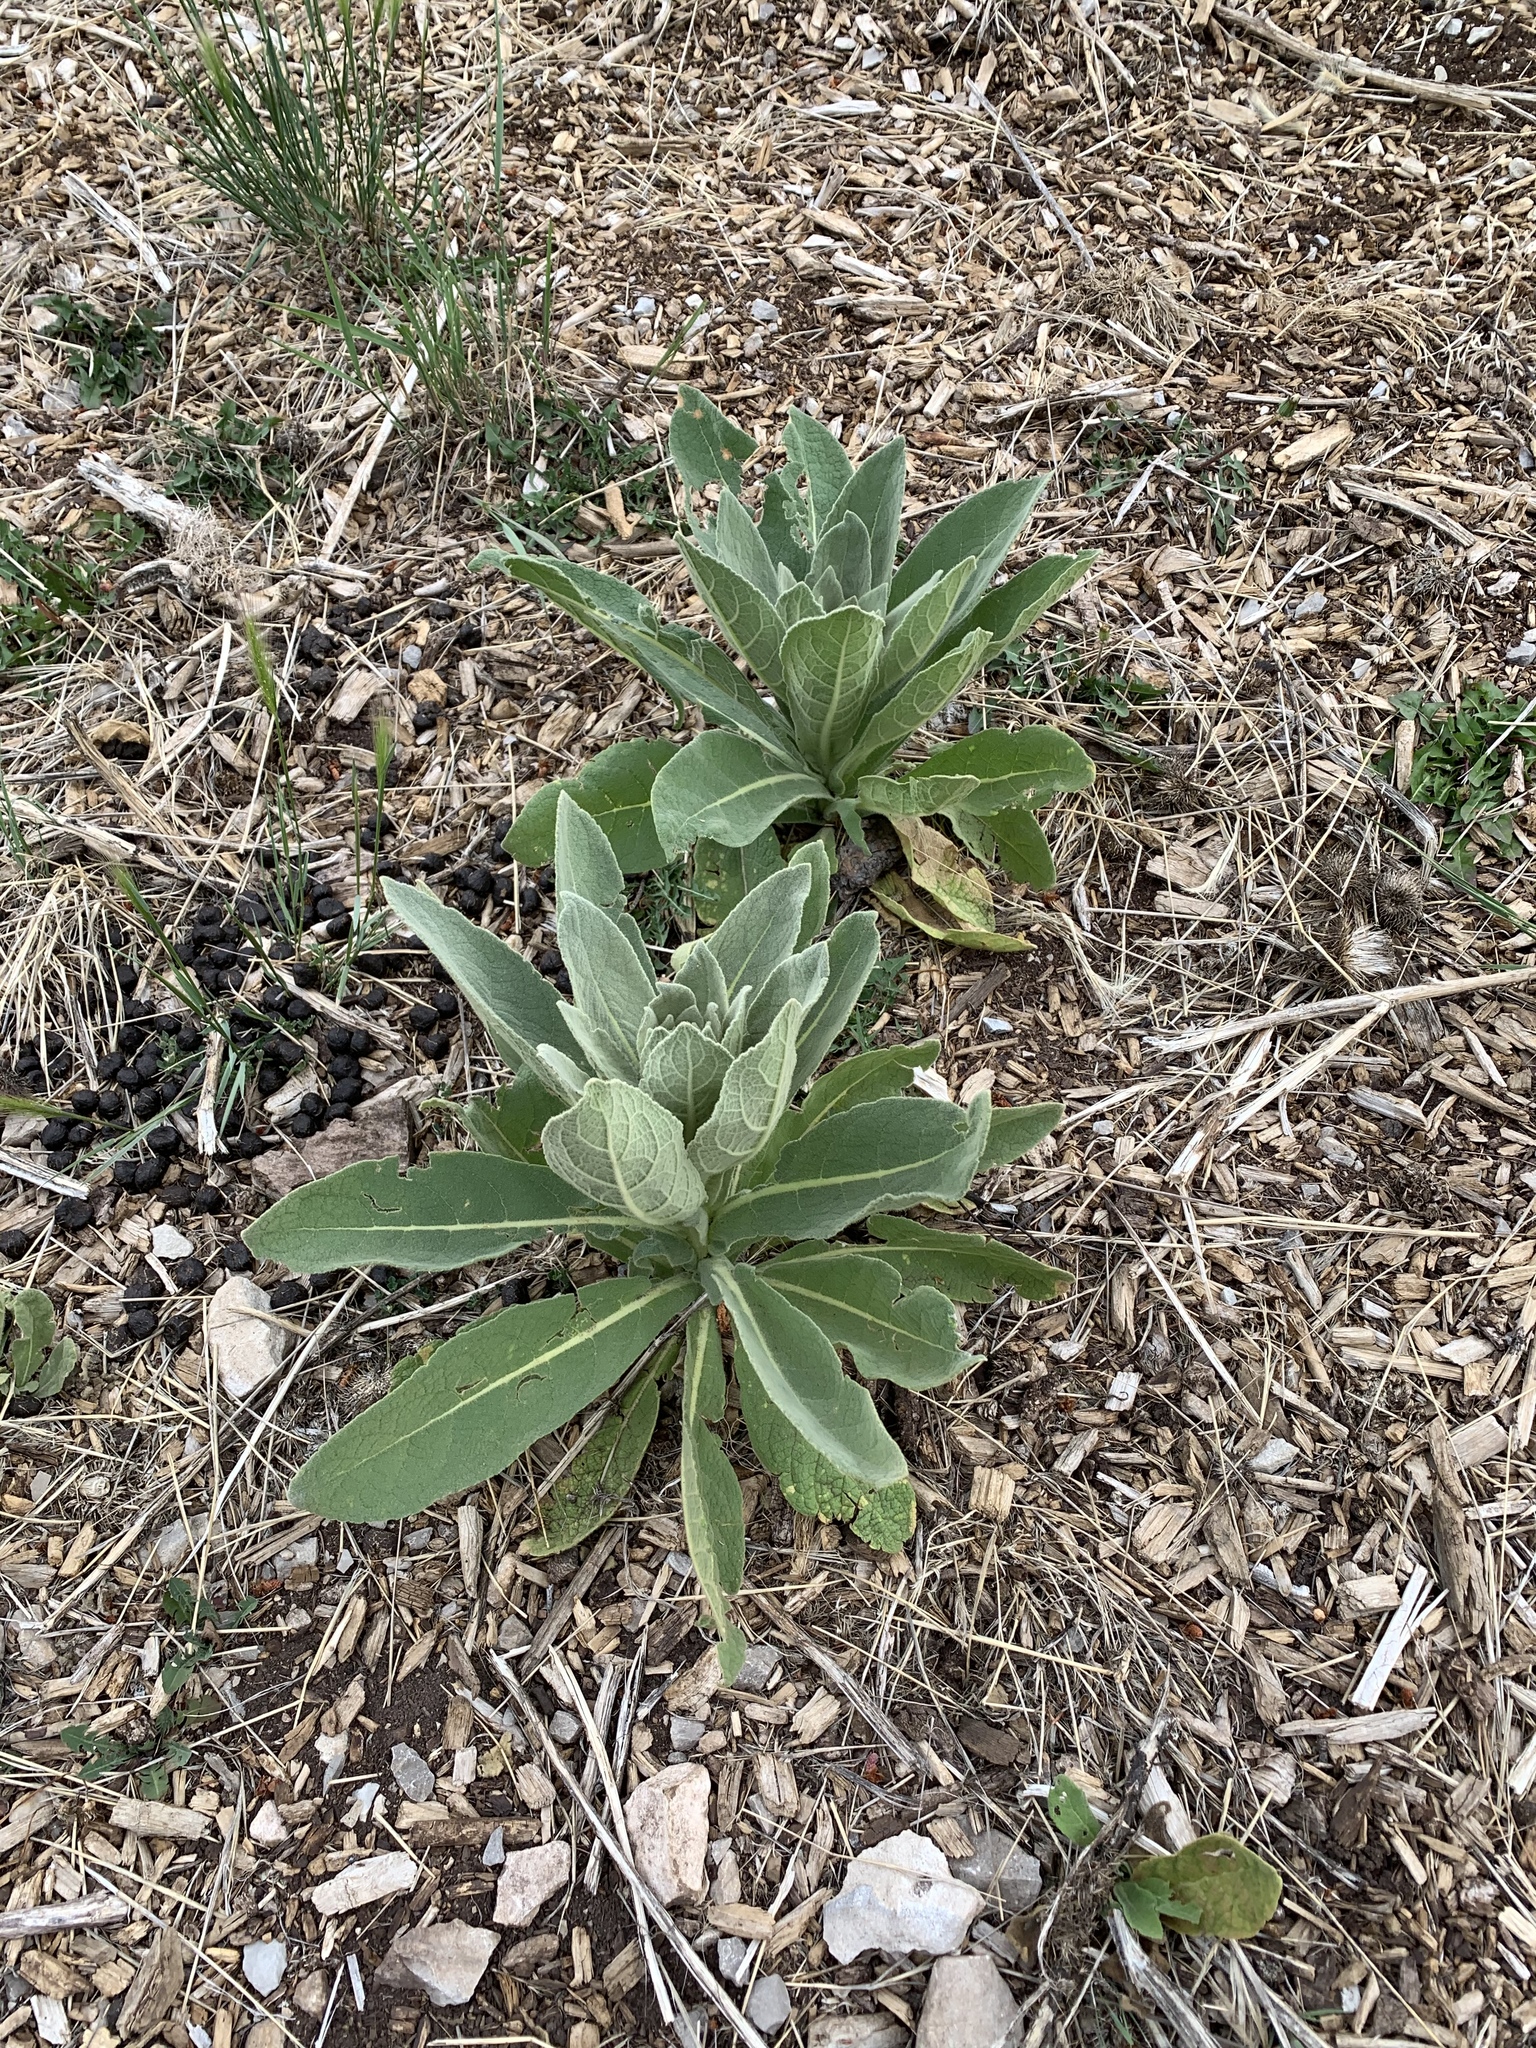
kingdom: Plantae
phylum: Tracheophyta
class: Magnoliopsida
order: Lamiales
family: Scrophulariaceae
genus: Verbascum
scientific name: Verbascum thapsus
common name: Common mullein
